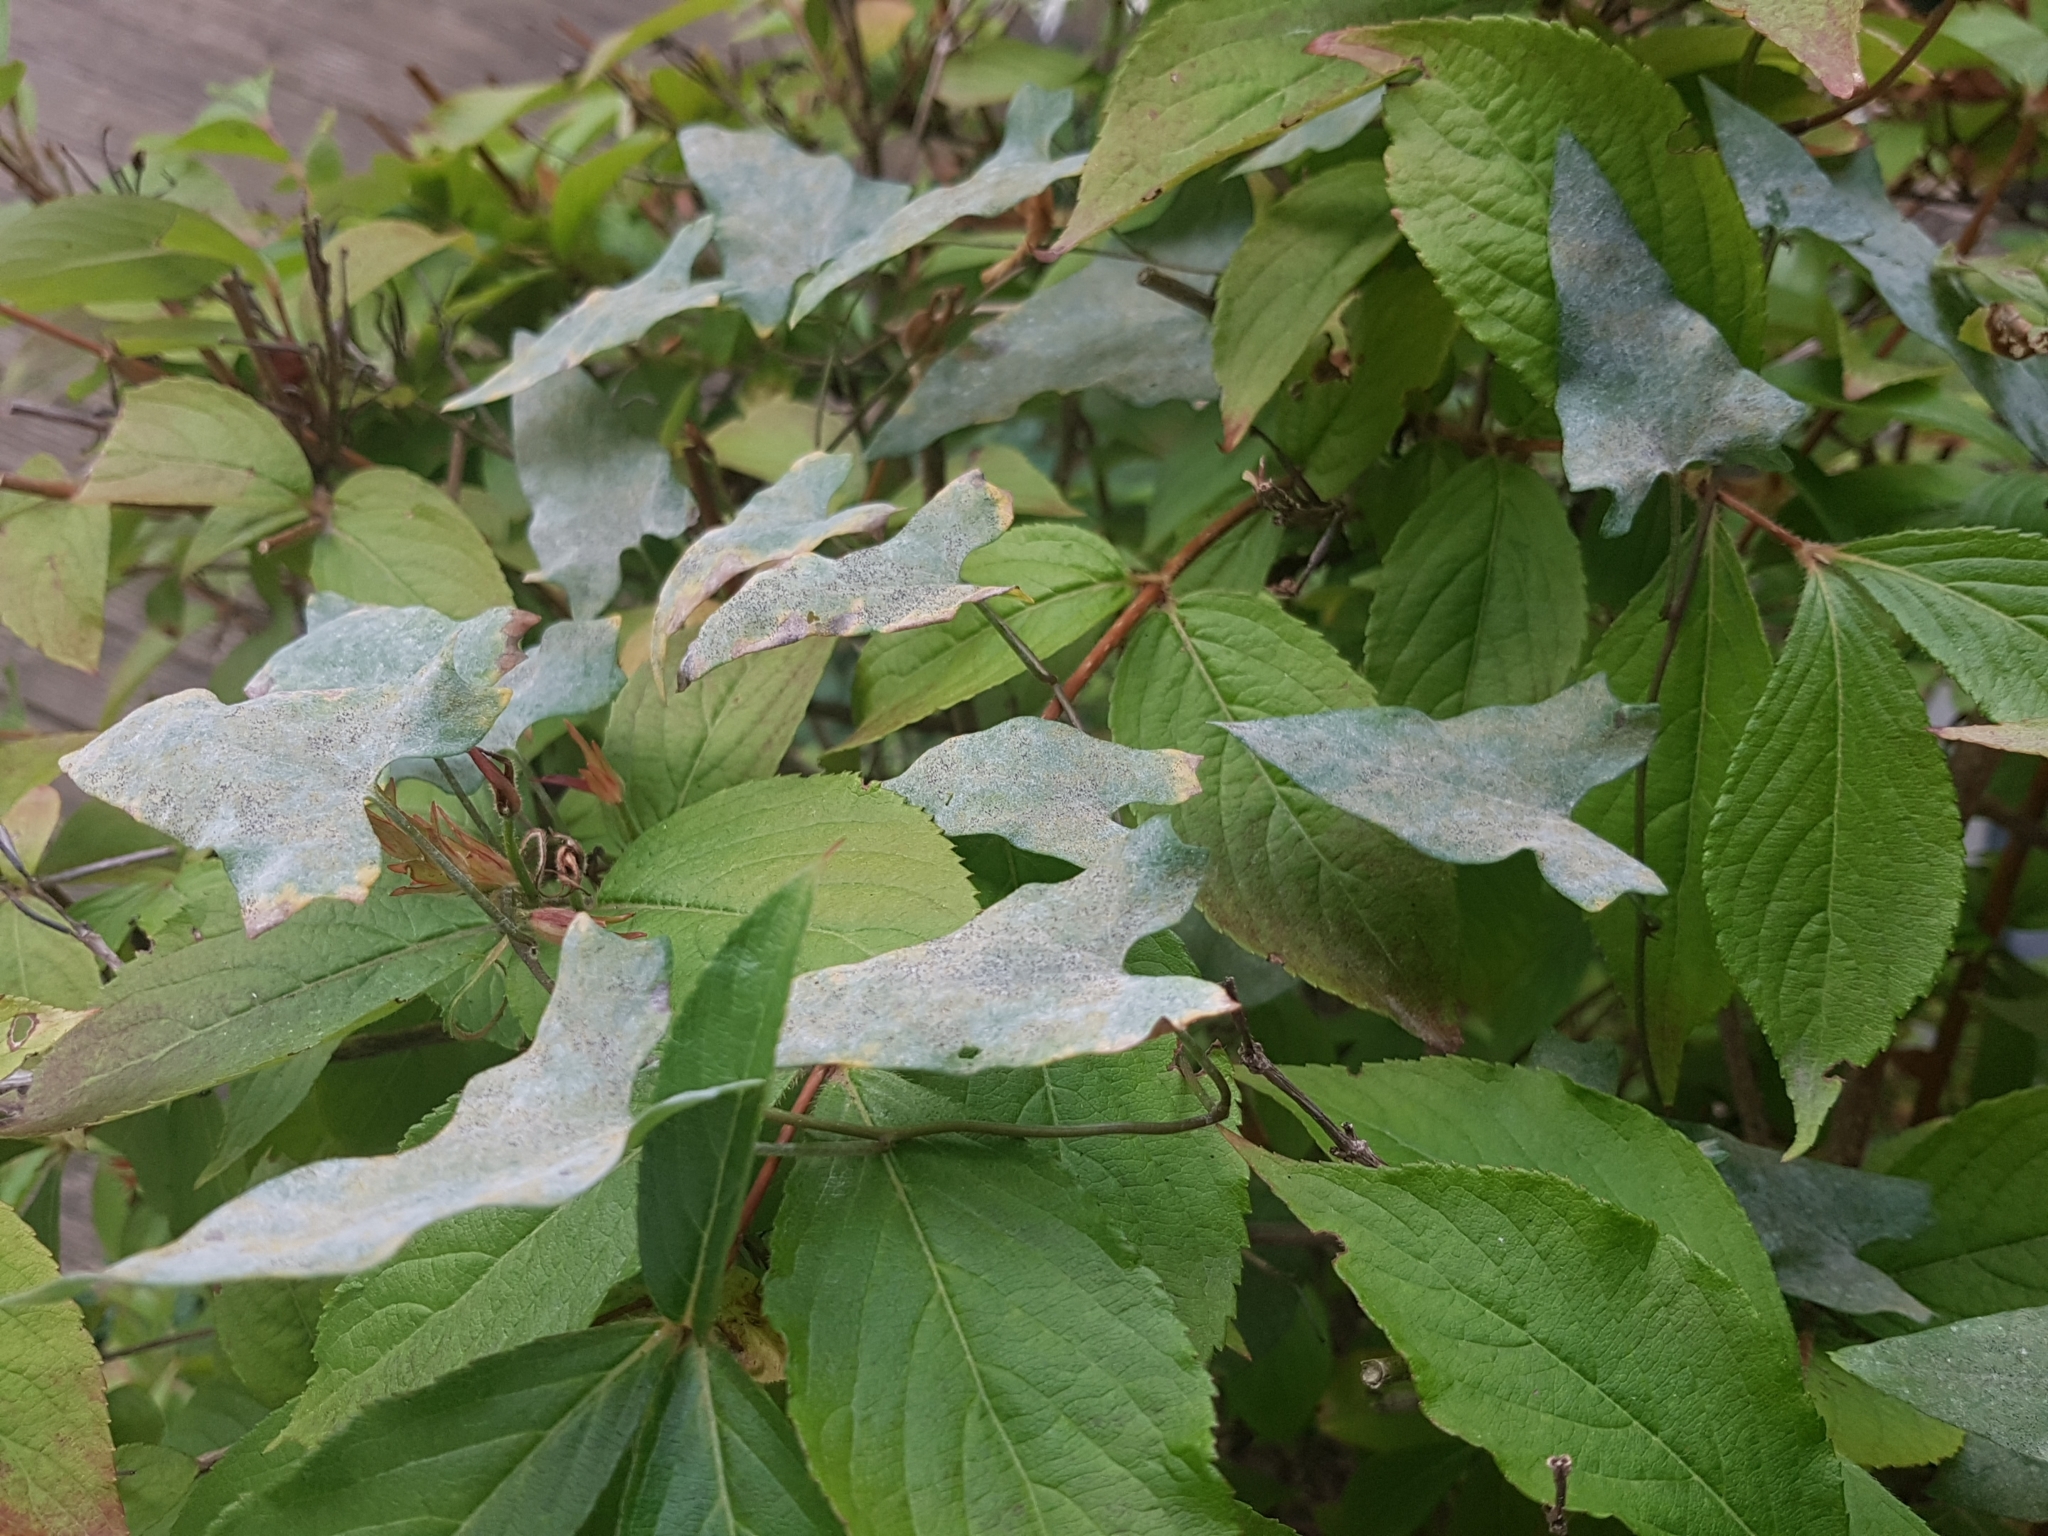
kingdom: Fungi
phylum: Ascomycota
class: Leotiomycetes
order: Helotiales
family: Erysiphaceae
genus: Erysiphe
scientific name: Erysiphe convolvuli
